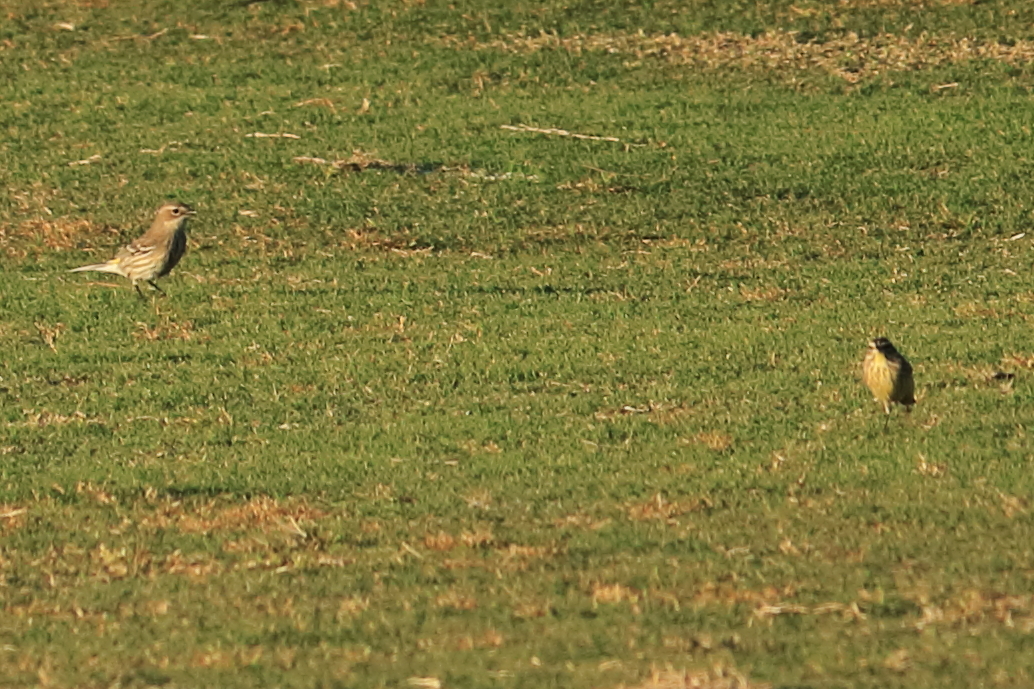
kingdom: Animalia
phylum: Chordata
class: Aves
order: Passeriformes
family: Parulidae
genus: Setophaga
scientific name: Setophaga coronata
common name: Myrtle warbler
